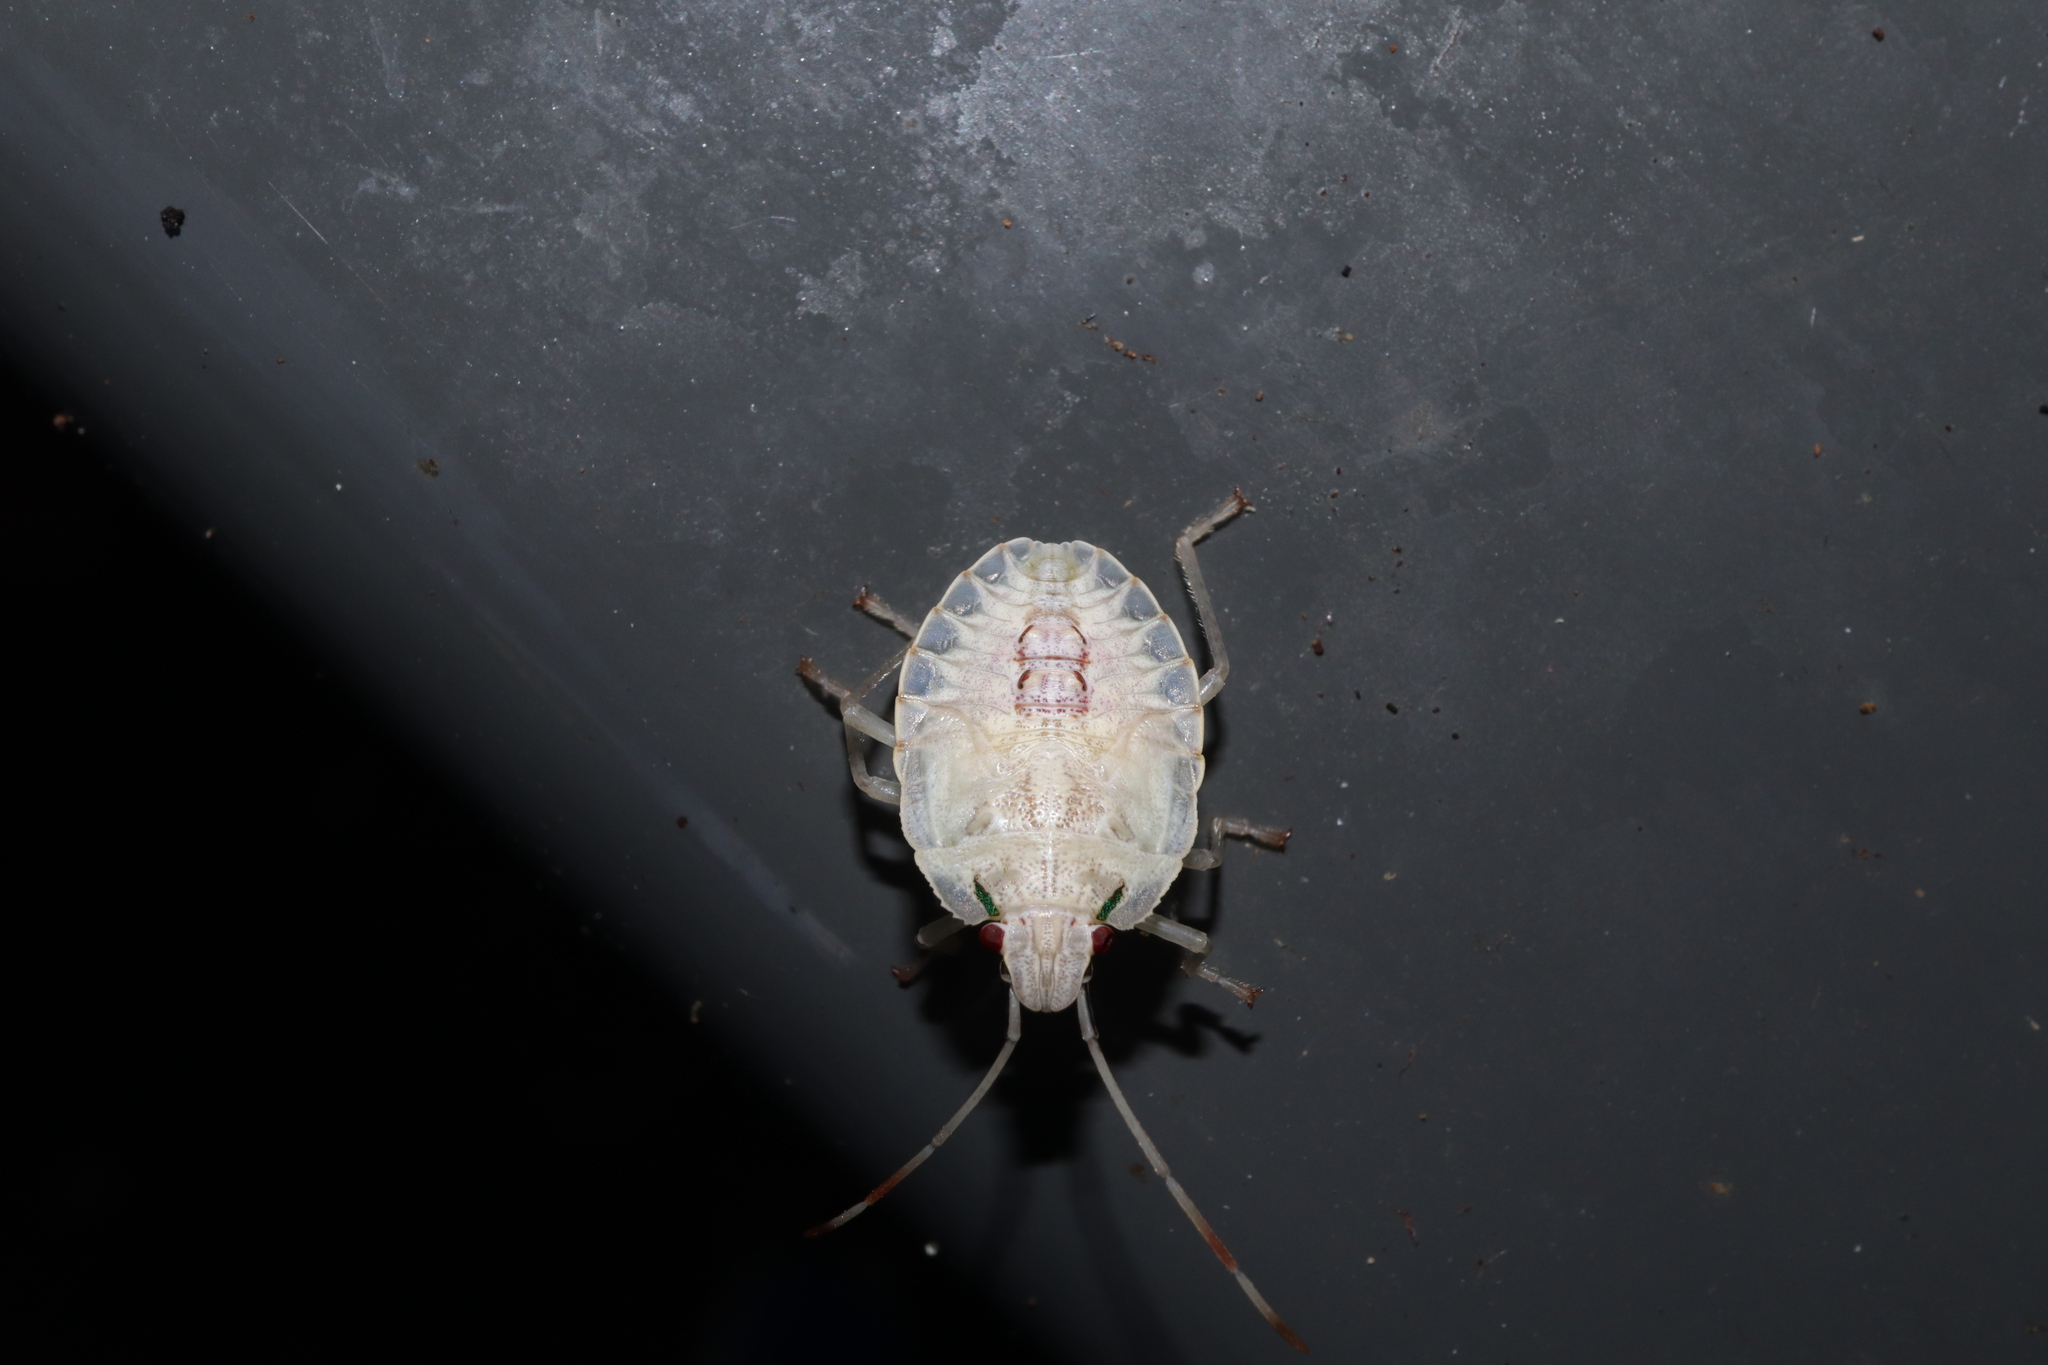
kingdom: Animalia
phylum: Arthropoda
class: Insecta
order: Hemiptera
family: Pentatomidae
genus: Bathrus
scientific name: Bathrus
